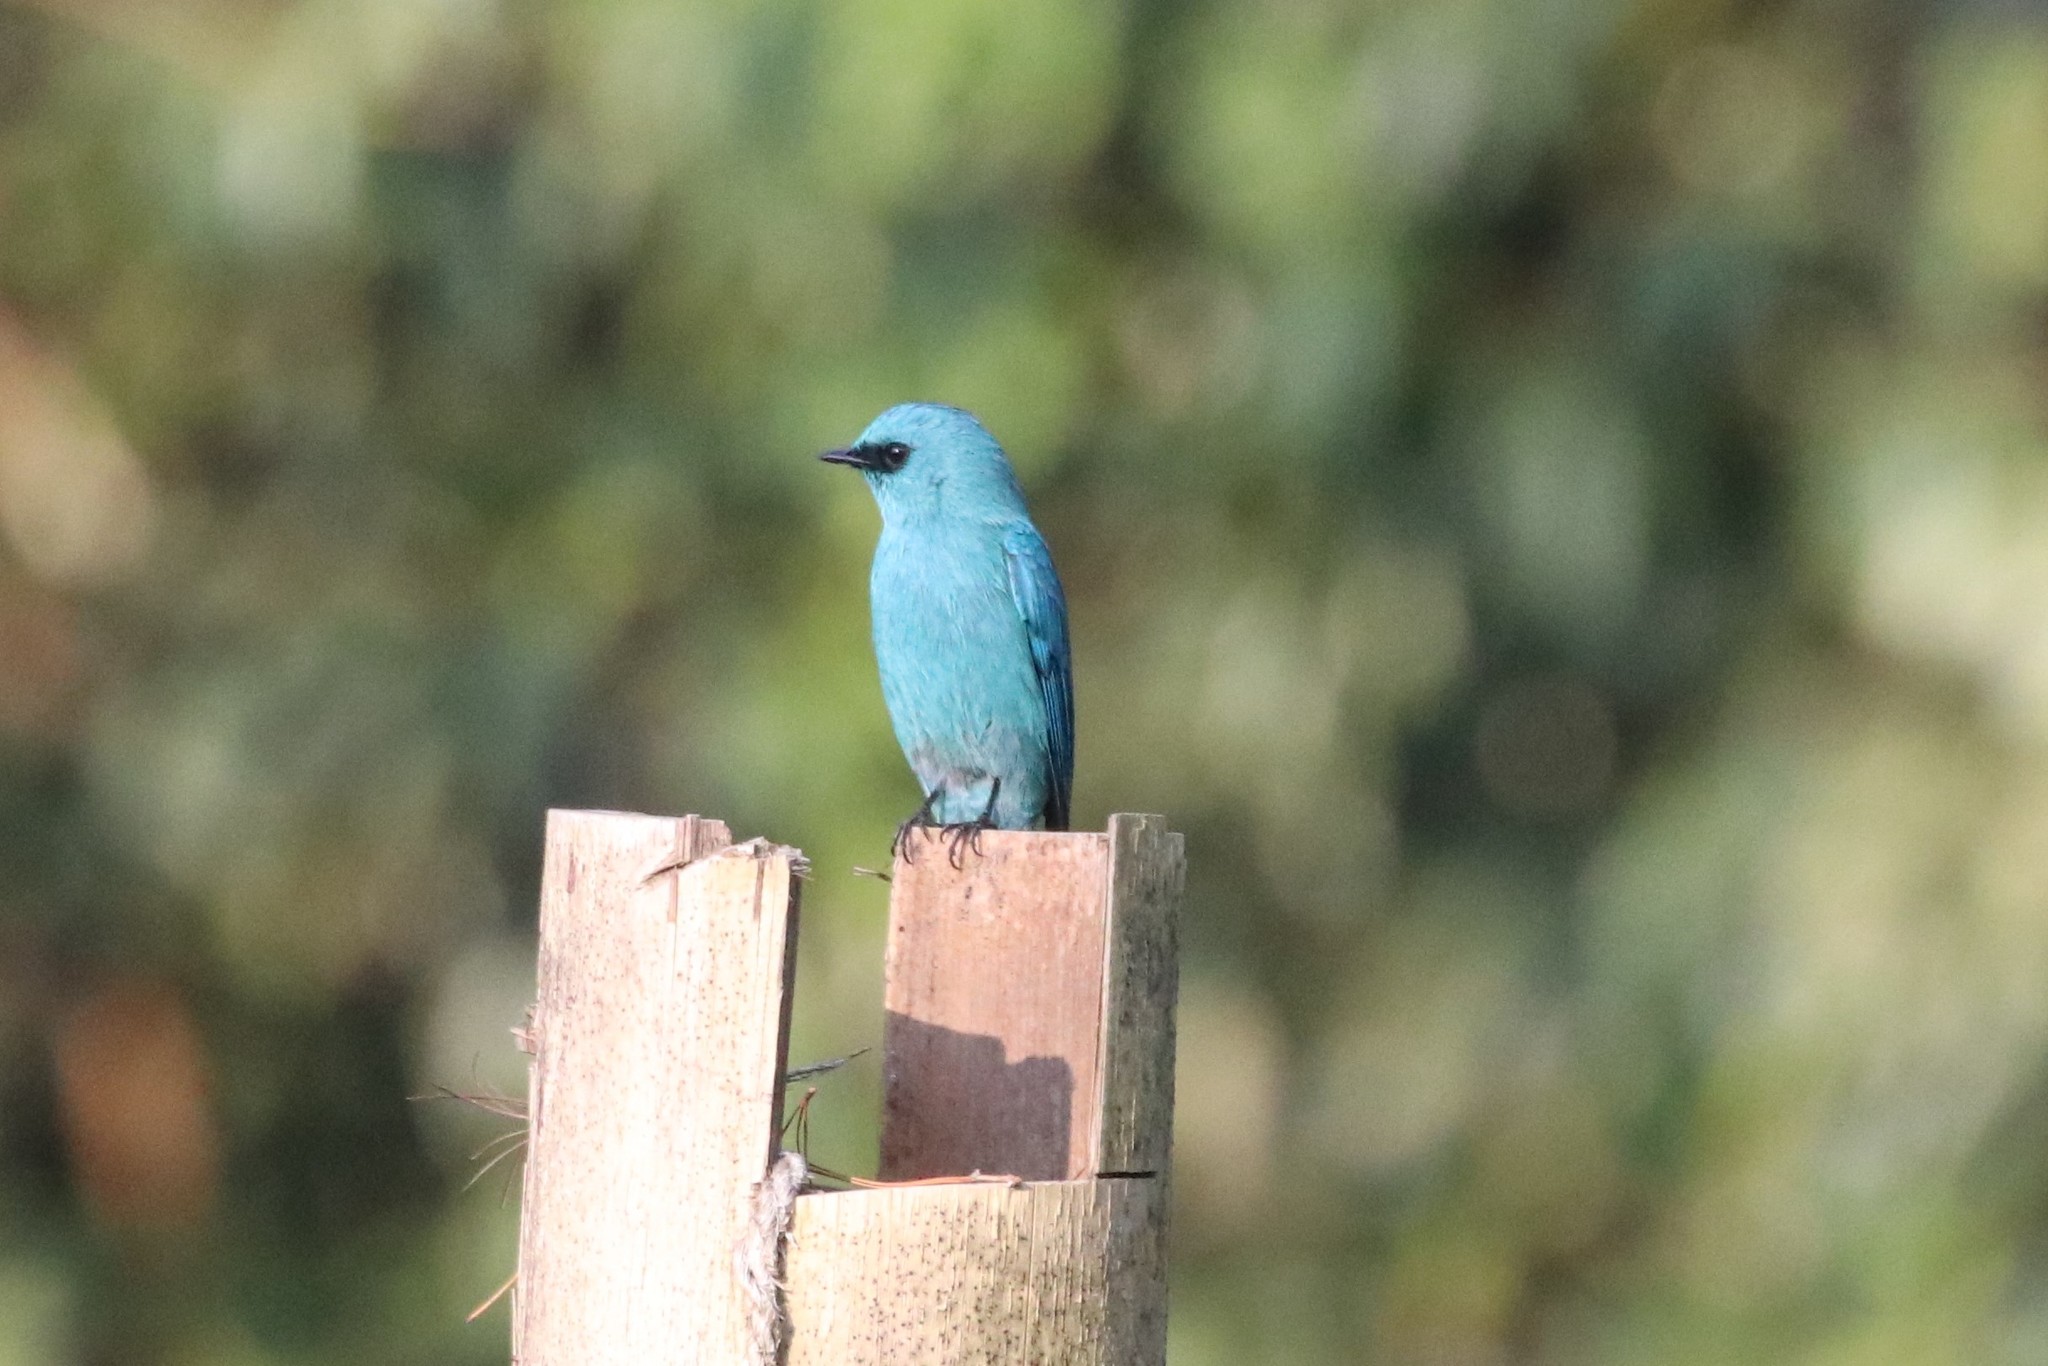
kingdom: Animalia
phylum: Chordata
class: Aves
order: Passeriformes
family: Muscicapidae
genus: Eumyias
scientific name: Eumyias thalassinus
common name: Verditer flycatcher
